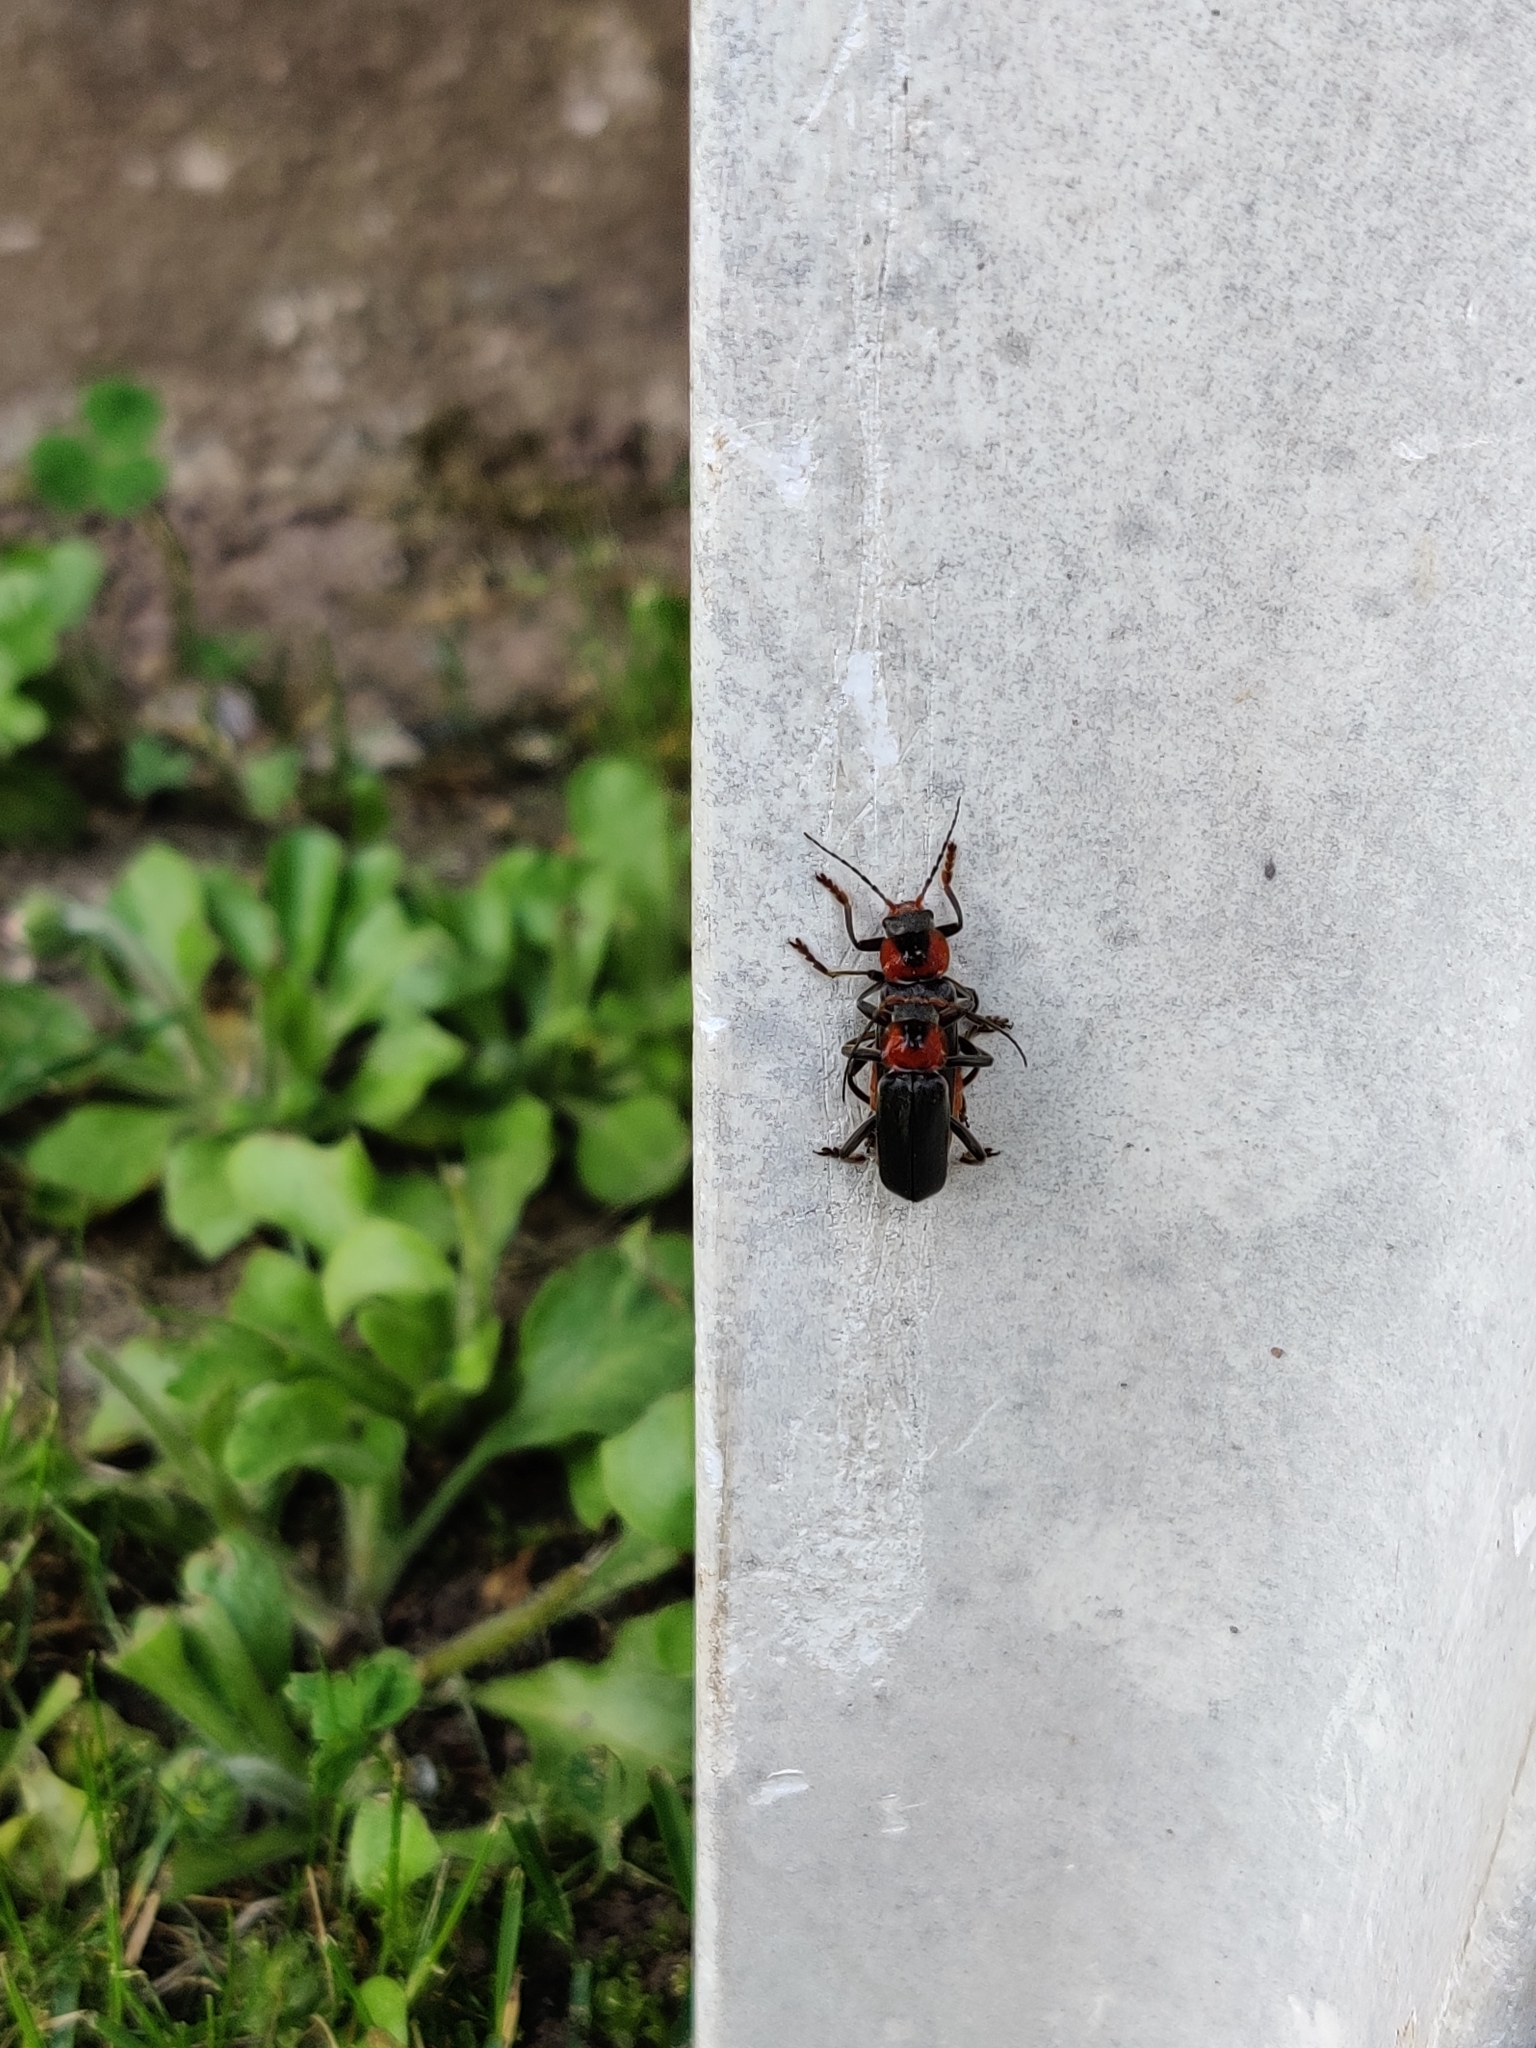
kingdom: Animalia
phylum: Arthropoda
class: Insecta
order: Coleoptera
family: Cantharidae
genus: Cantharis
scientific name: Cantharis fusca
